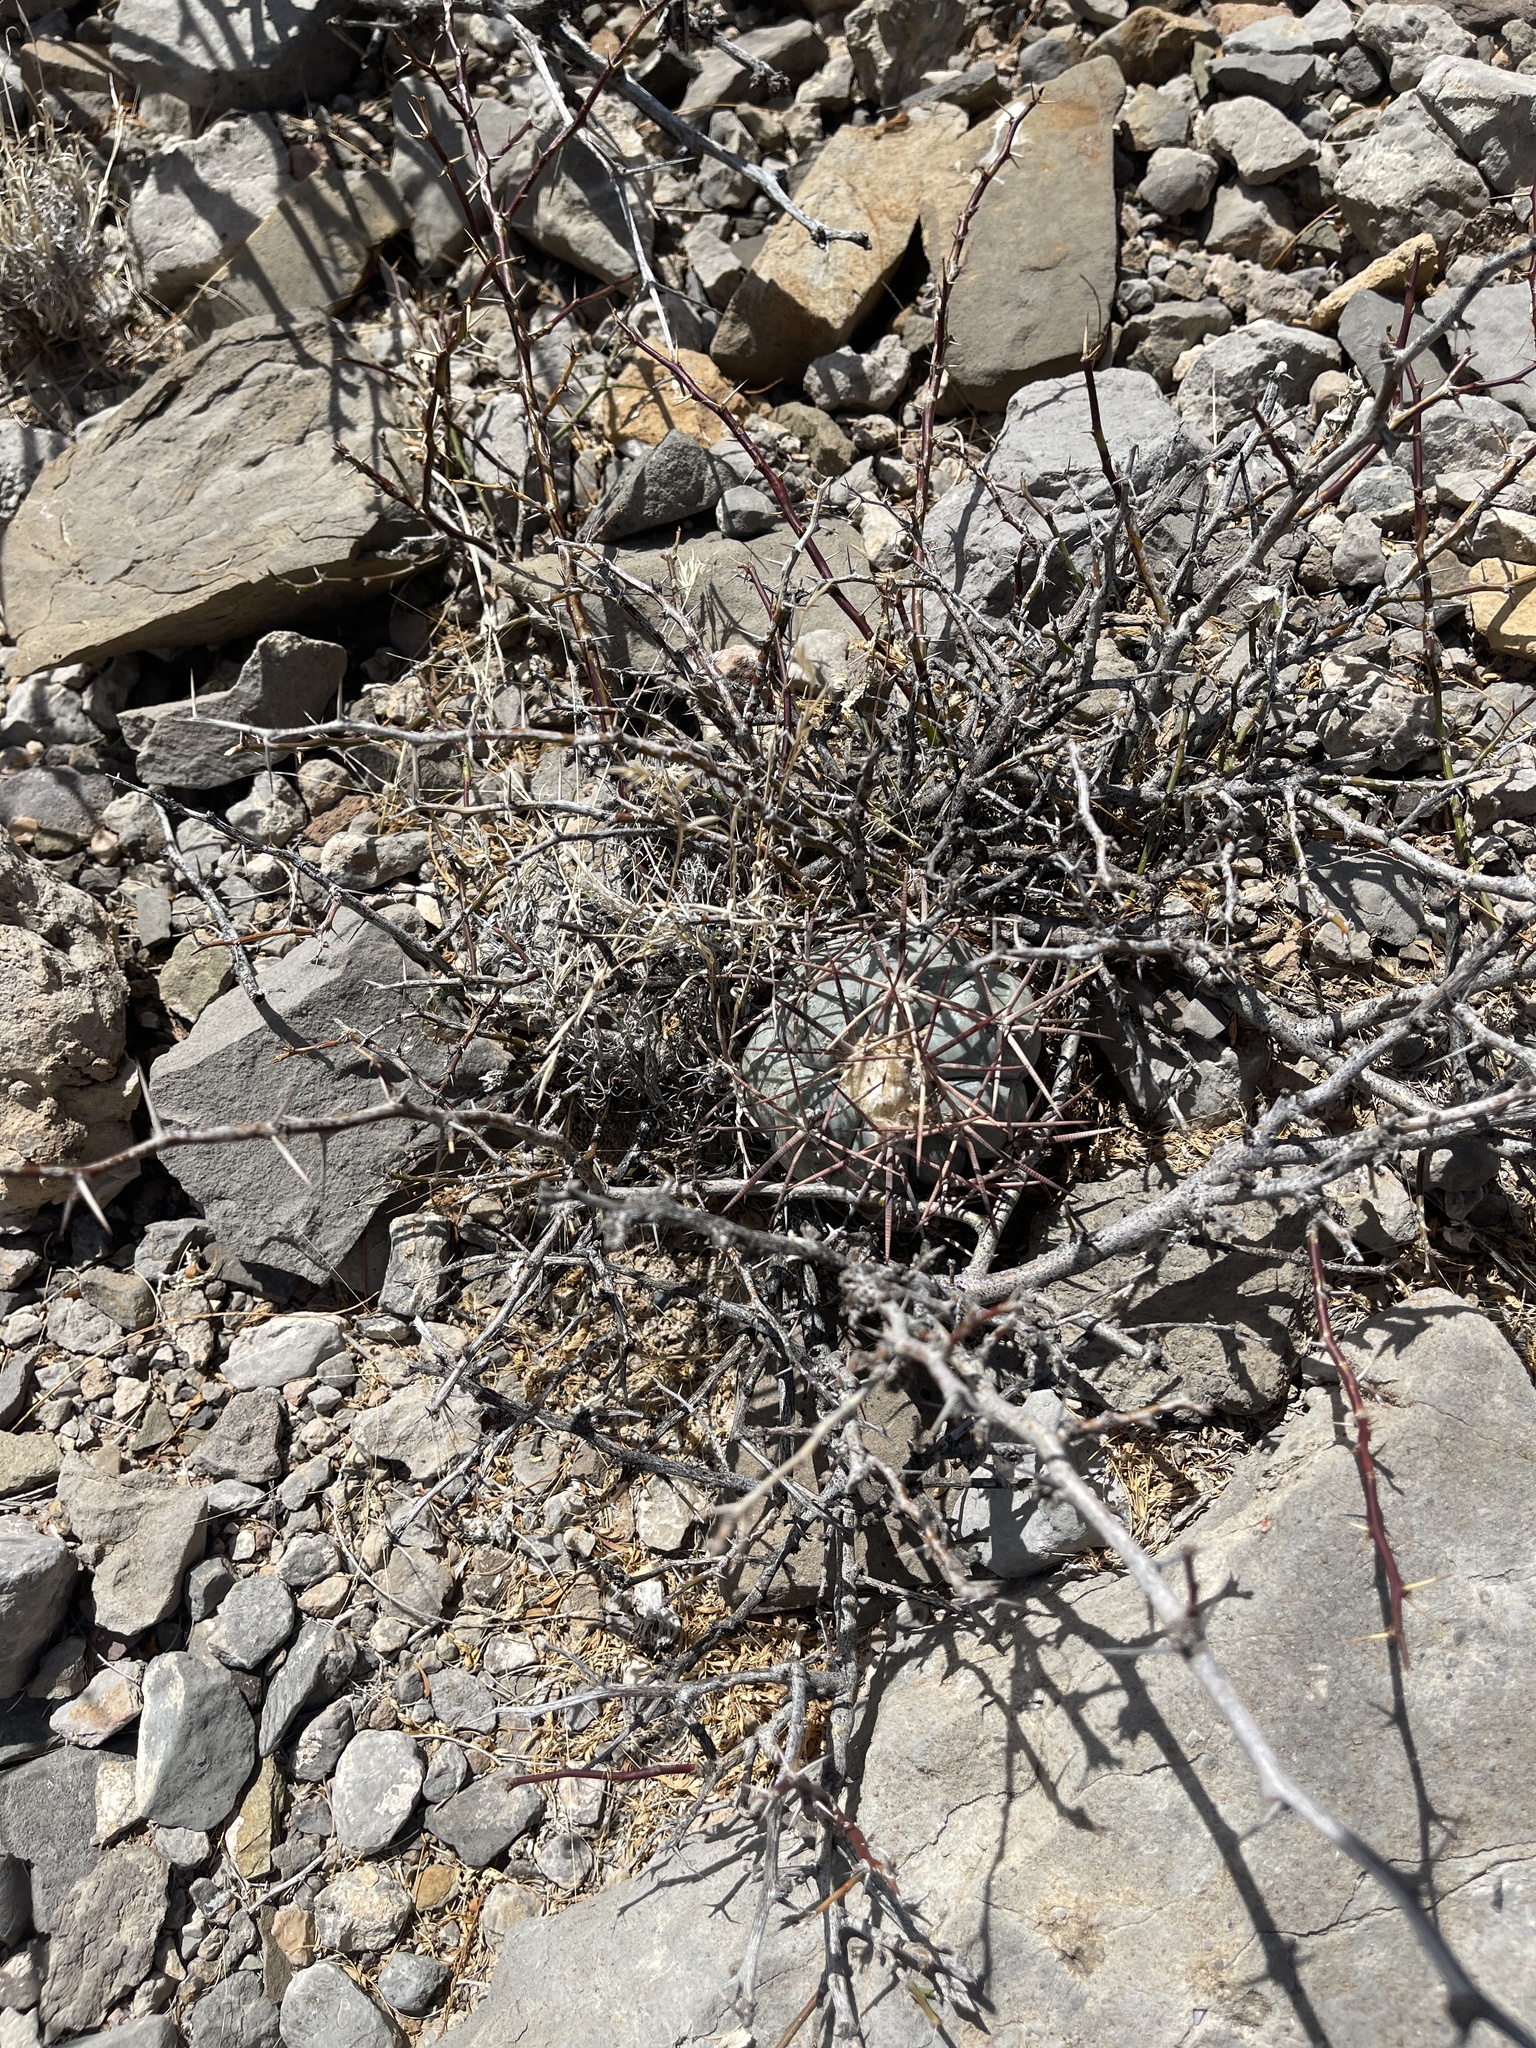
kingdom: Plantae
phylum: Tracheophyta
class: Magnoliopsida
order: Caryophyllales
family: Cactaceae
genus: Echinocactus
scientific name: Echinocactus horizonthalonius
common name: Devilshead
